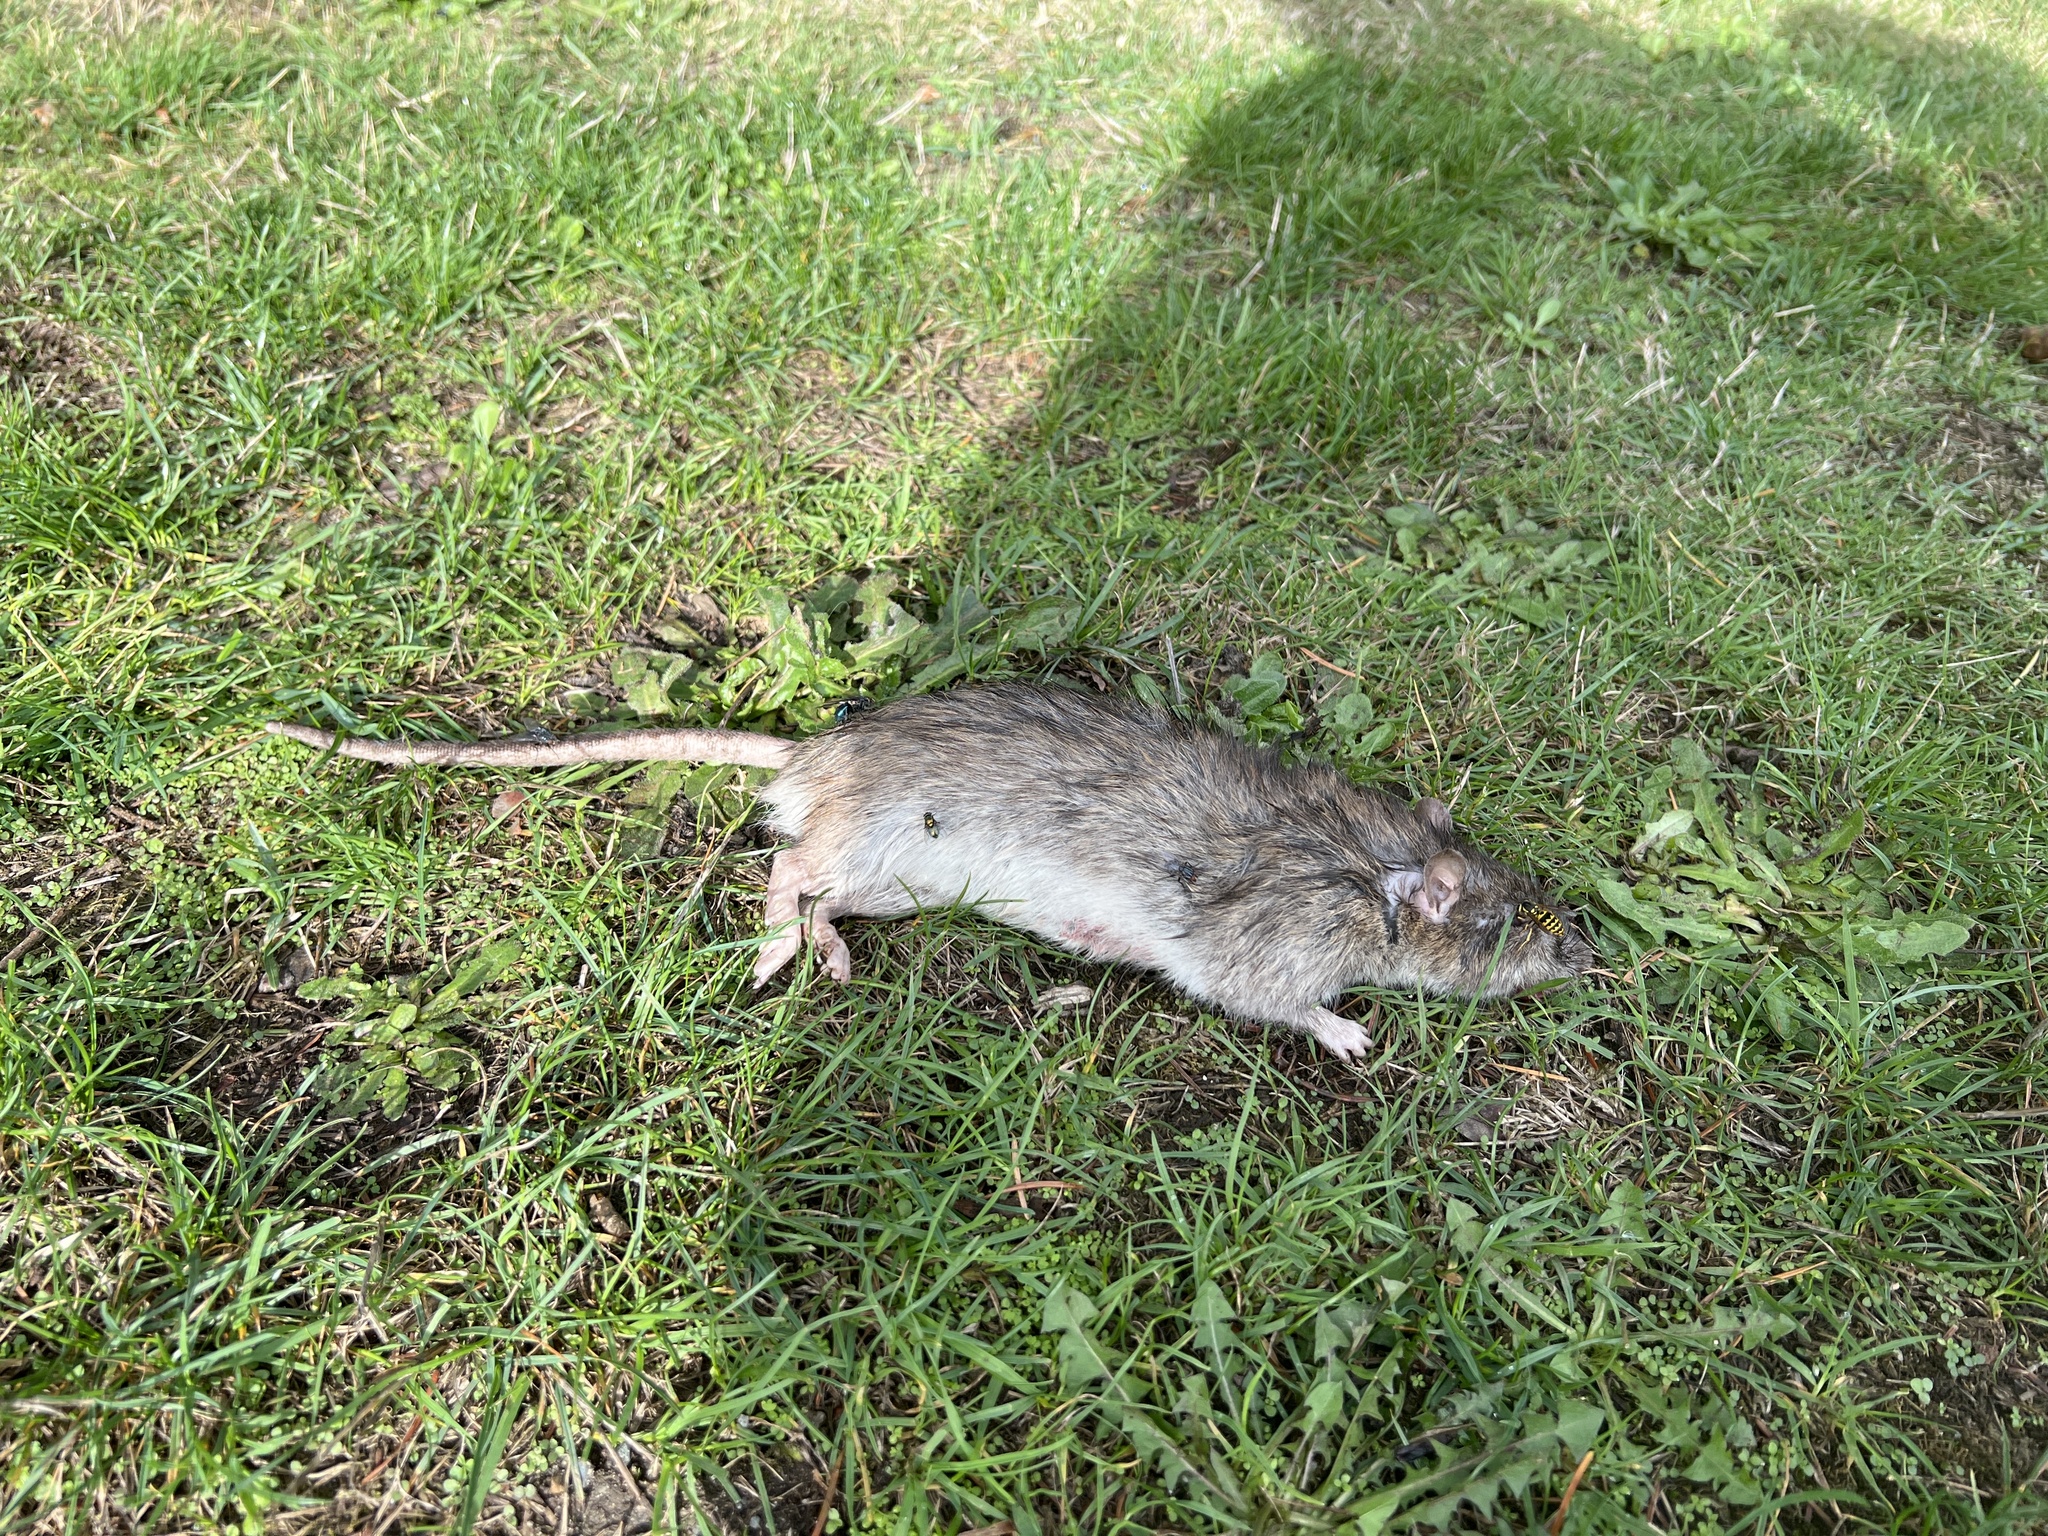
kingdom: Animalia
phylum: Chordata
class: Mammalia
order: Rodentia
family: Muridae
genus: Rattus
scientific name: Rattus norvegicus
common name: Brown rat
